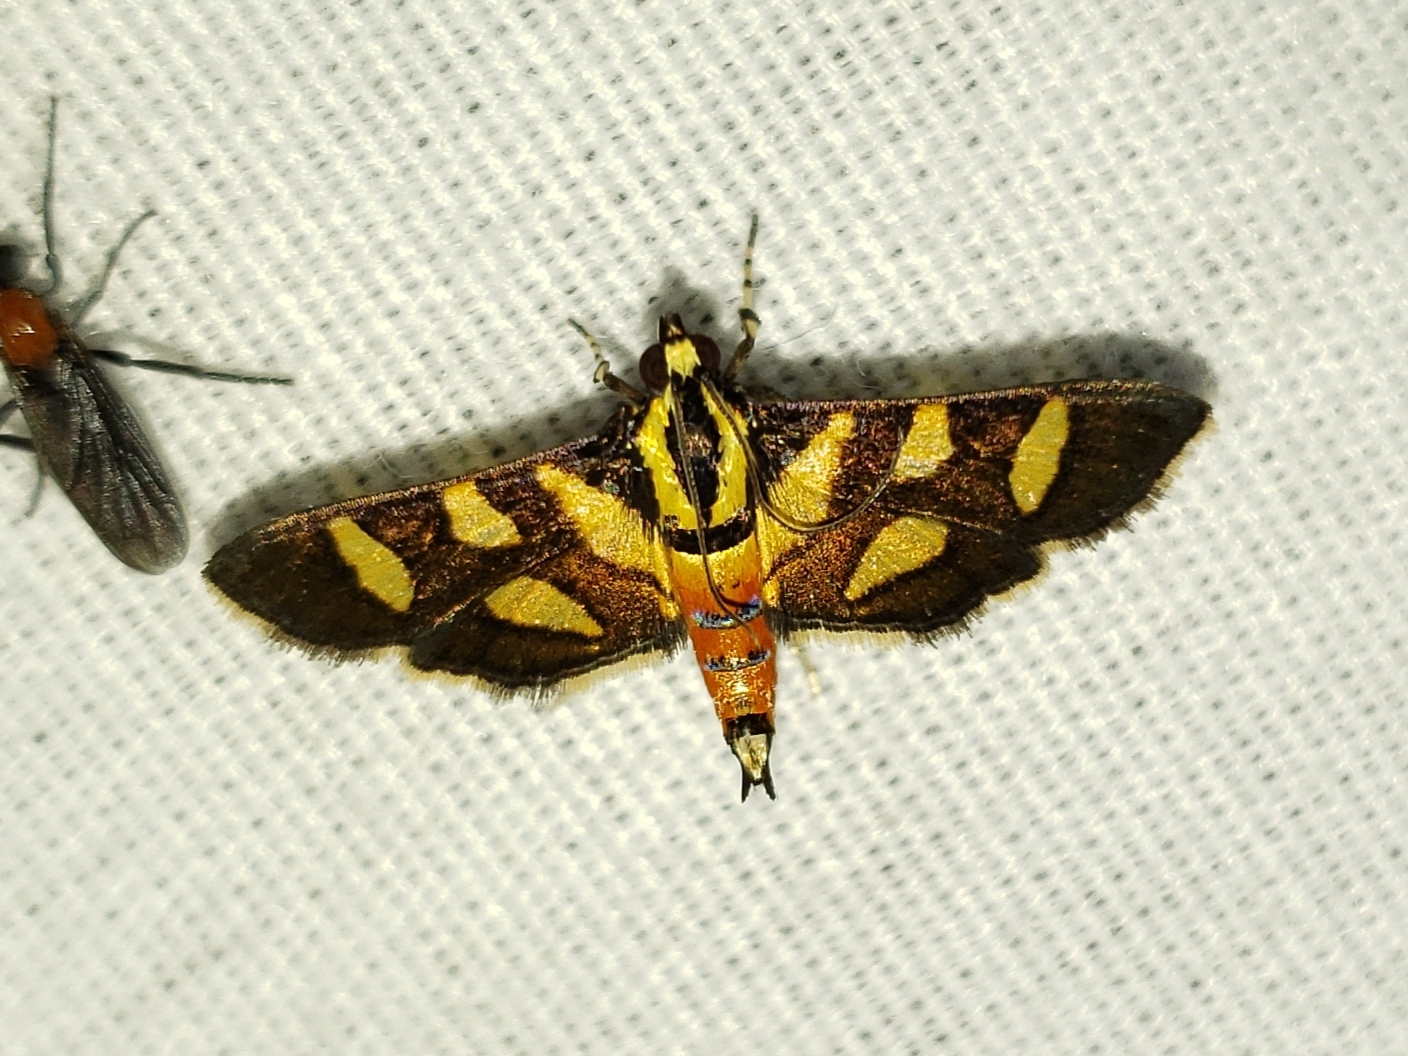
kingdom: Animalia
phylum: Arthropoda
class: Insecta
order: Lepidoptera
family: Crambidae
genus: Syngamia
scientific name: Syngamia florella
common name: Orange-spotted flower moth
